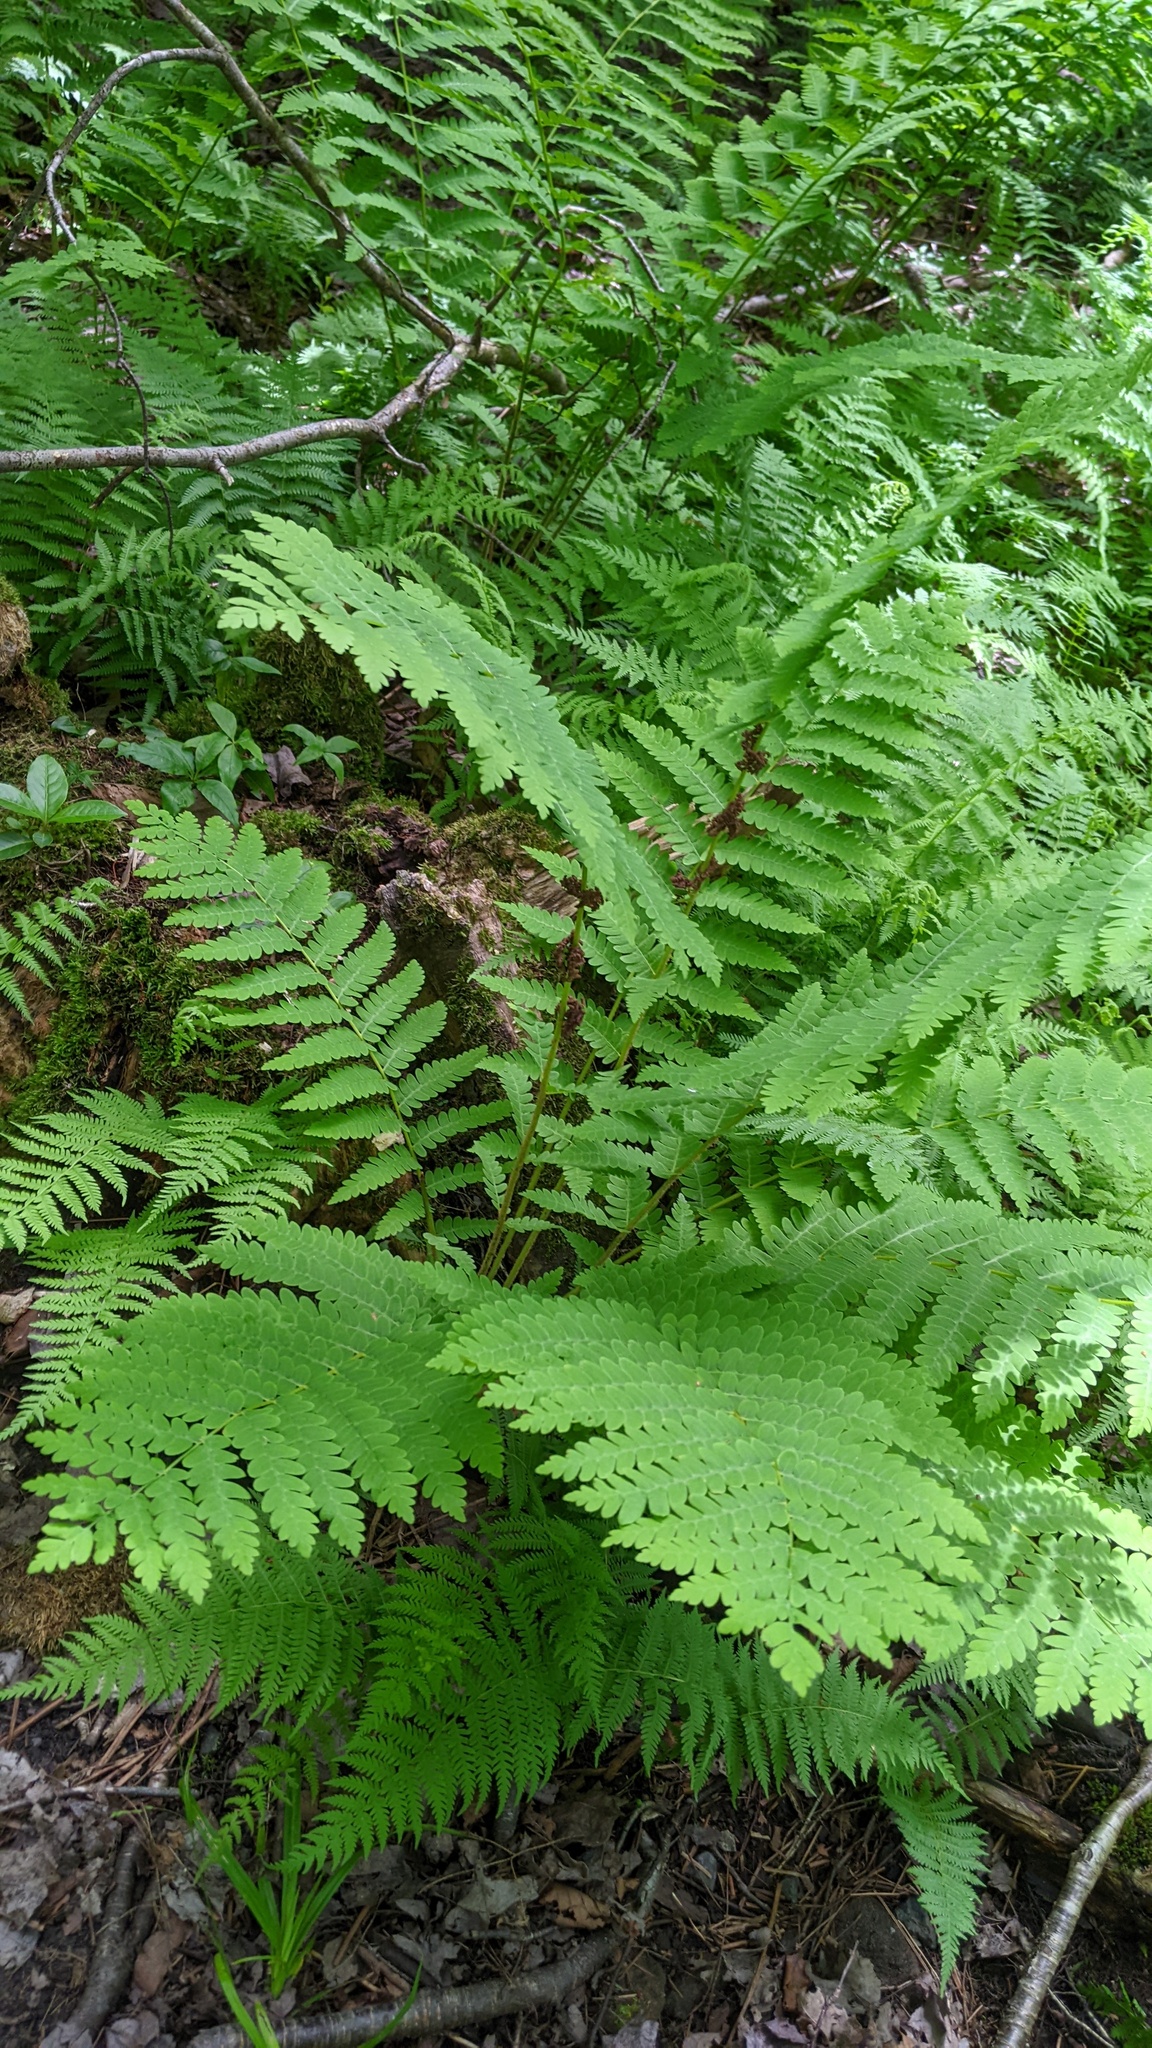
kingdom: Plantae
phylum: Tracheophyta
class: Polypodiopsida
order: Osmundales
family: Osmundaceae
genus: Claytosmunda
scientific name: Claytosmunda claytoniana
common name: Clayton's fern
